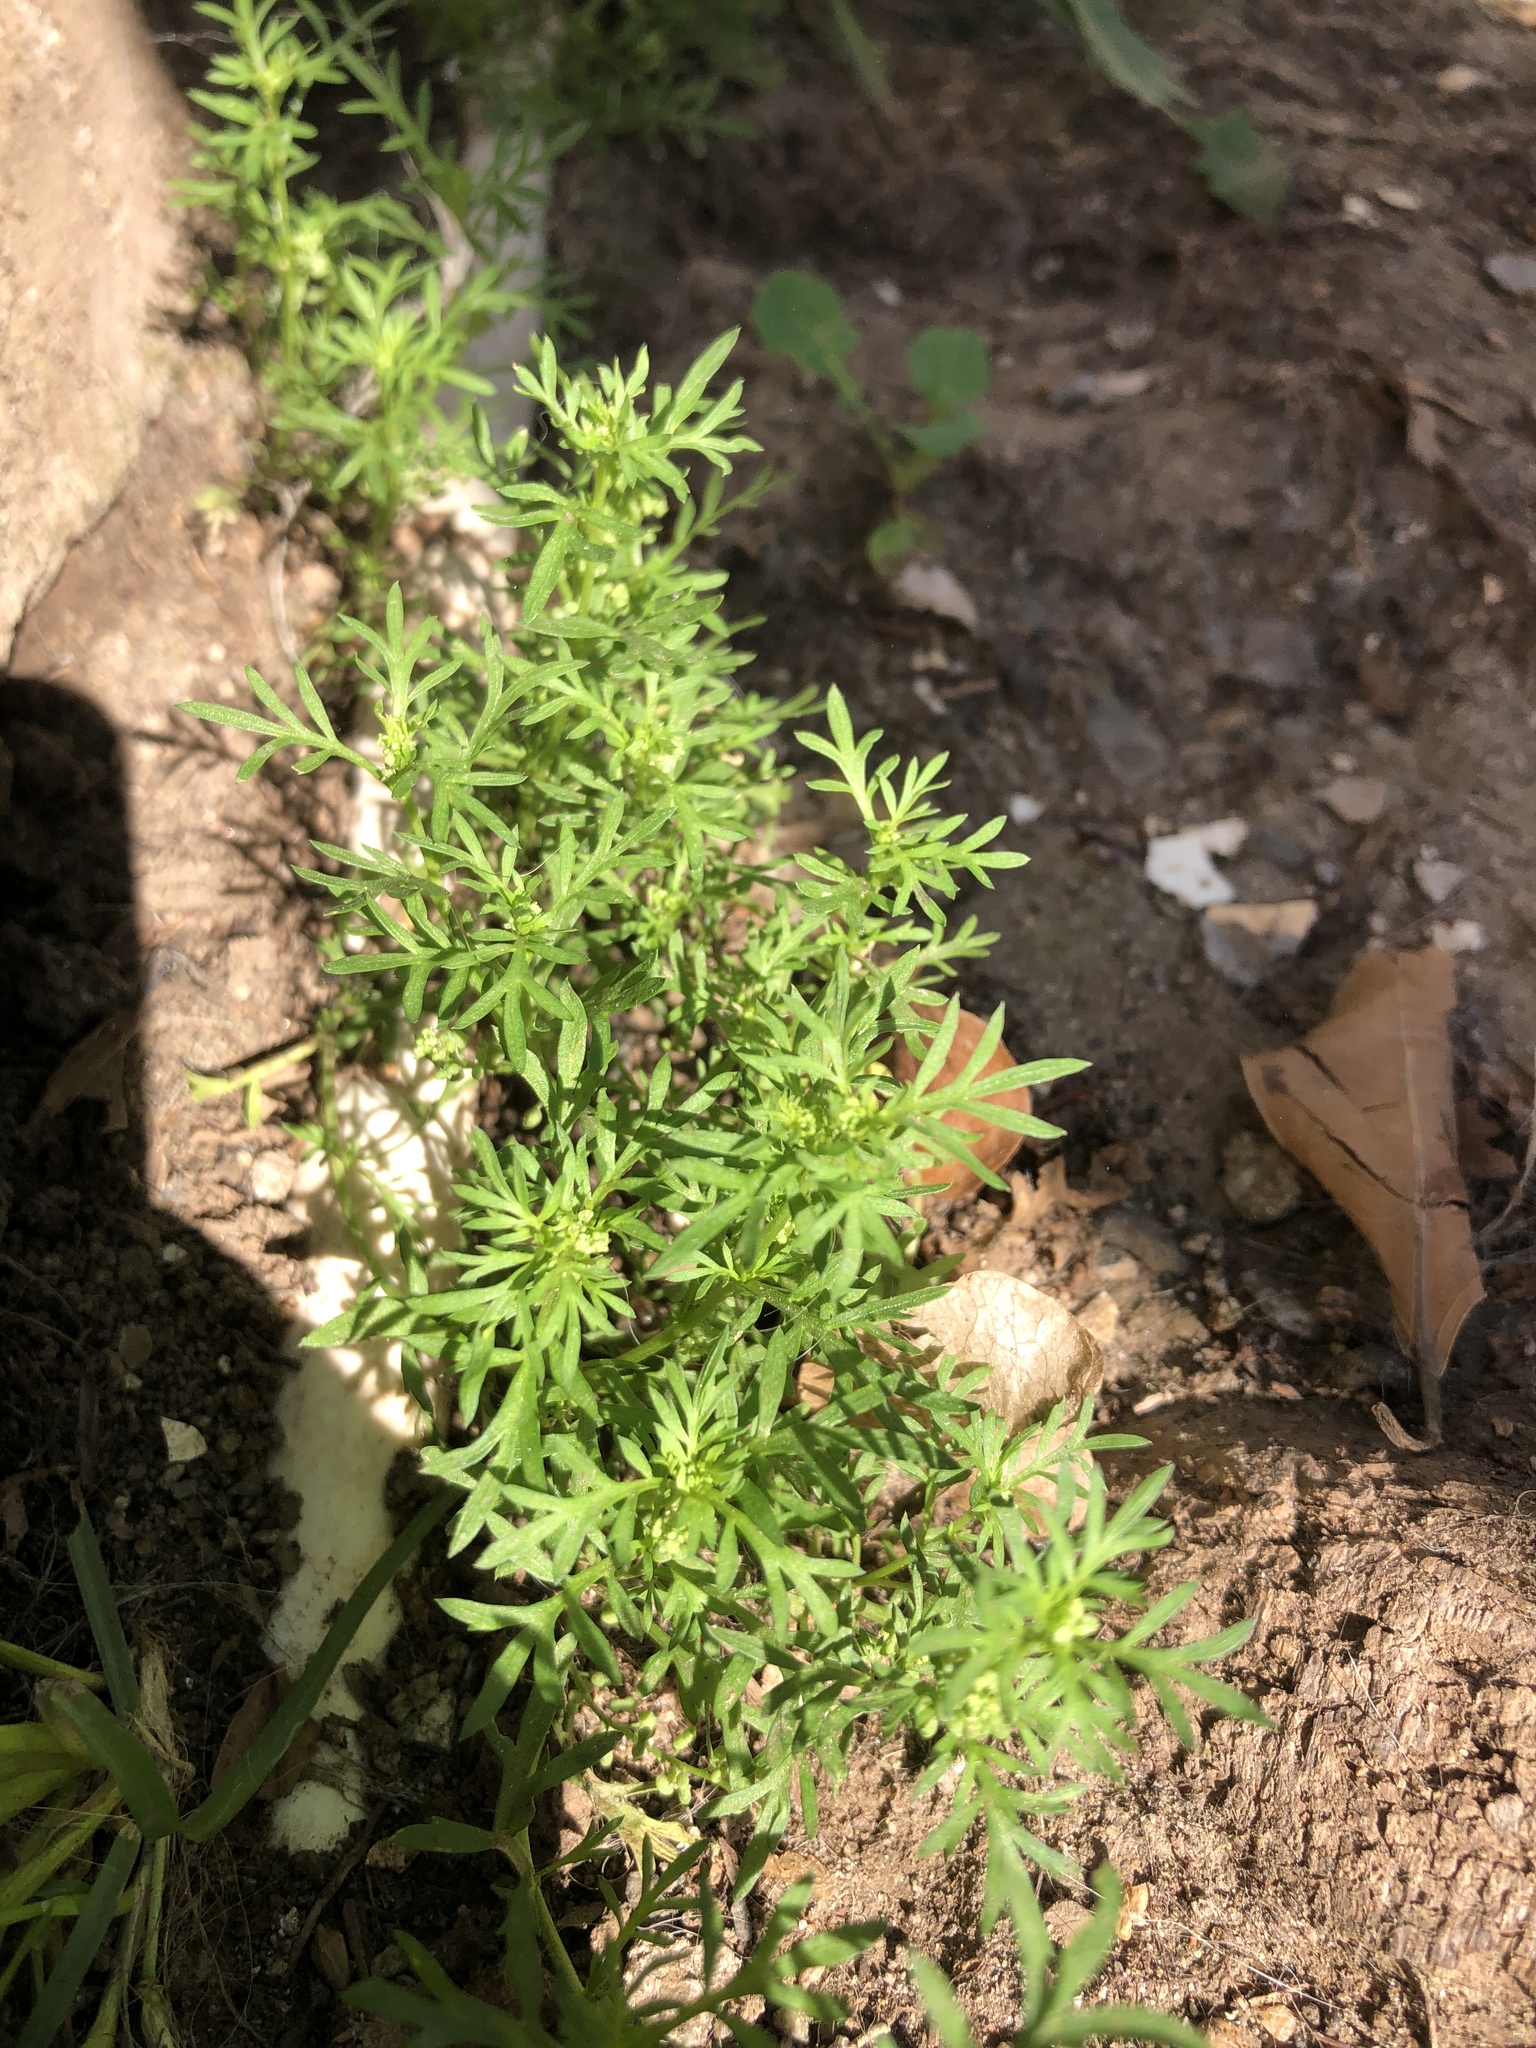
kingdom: Plantae
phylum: Tracheophyta
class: Magnoliopsida
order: Brassicales
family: Brassicaceae
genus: Lepidium
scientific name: Lepidium didymum
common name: Lesser swinecress
